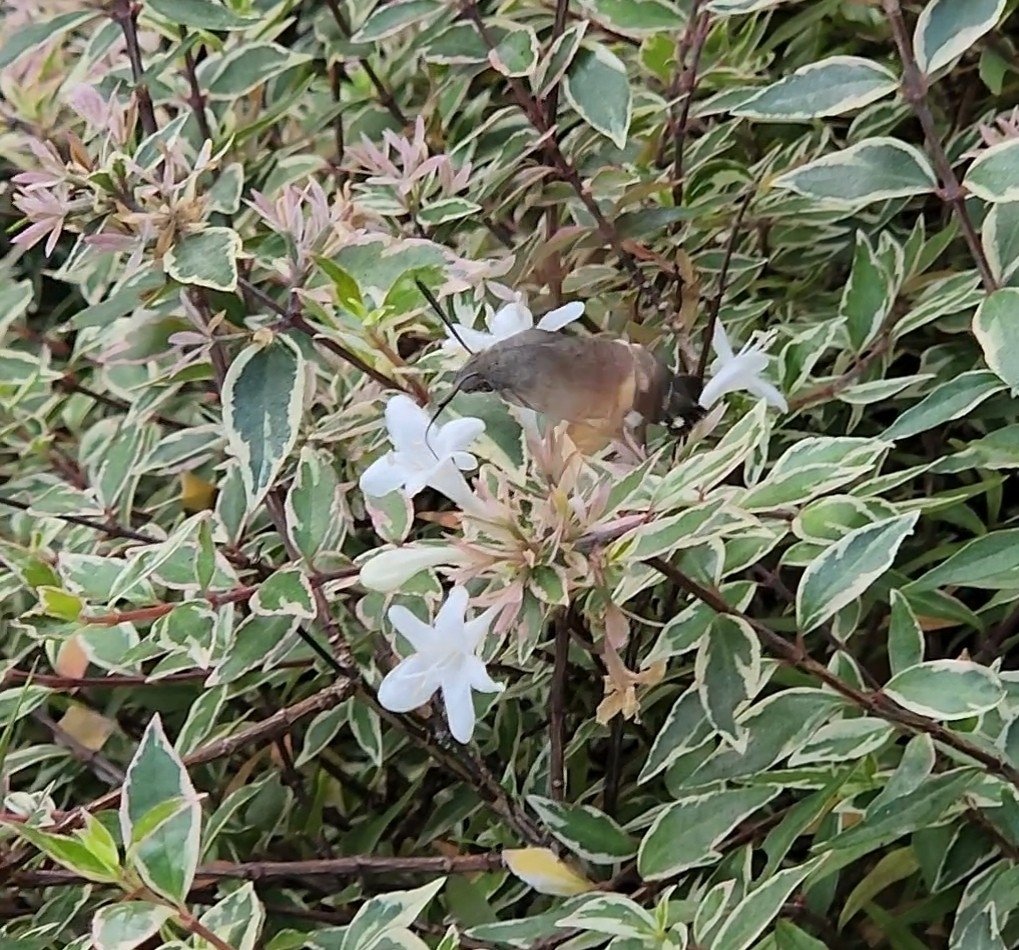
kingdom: Animalia
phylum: Arthropoda
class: Insecta
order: Lepidoptera
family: Sphingidae
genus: Macroglossum
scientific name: Macroglossum stellatarum
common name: Humming-bird hawk-moth
